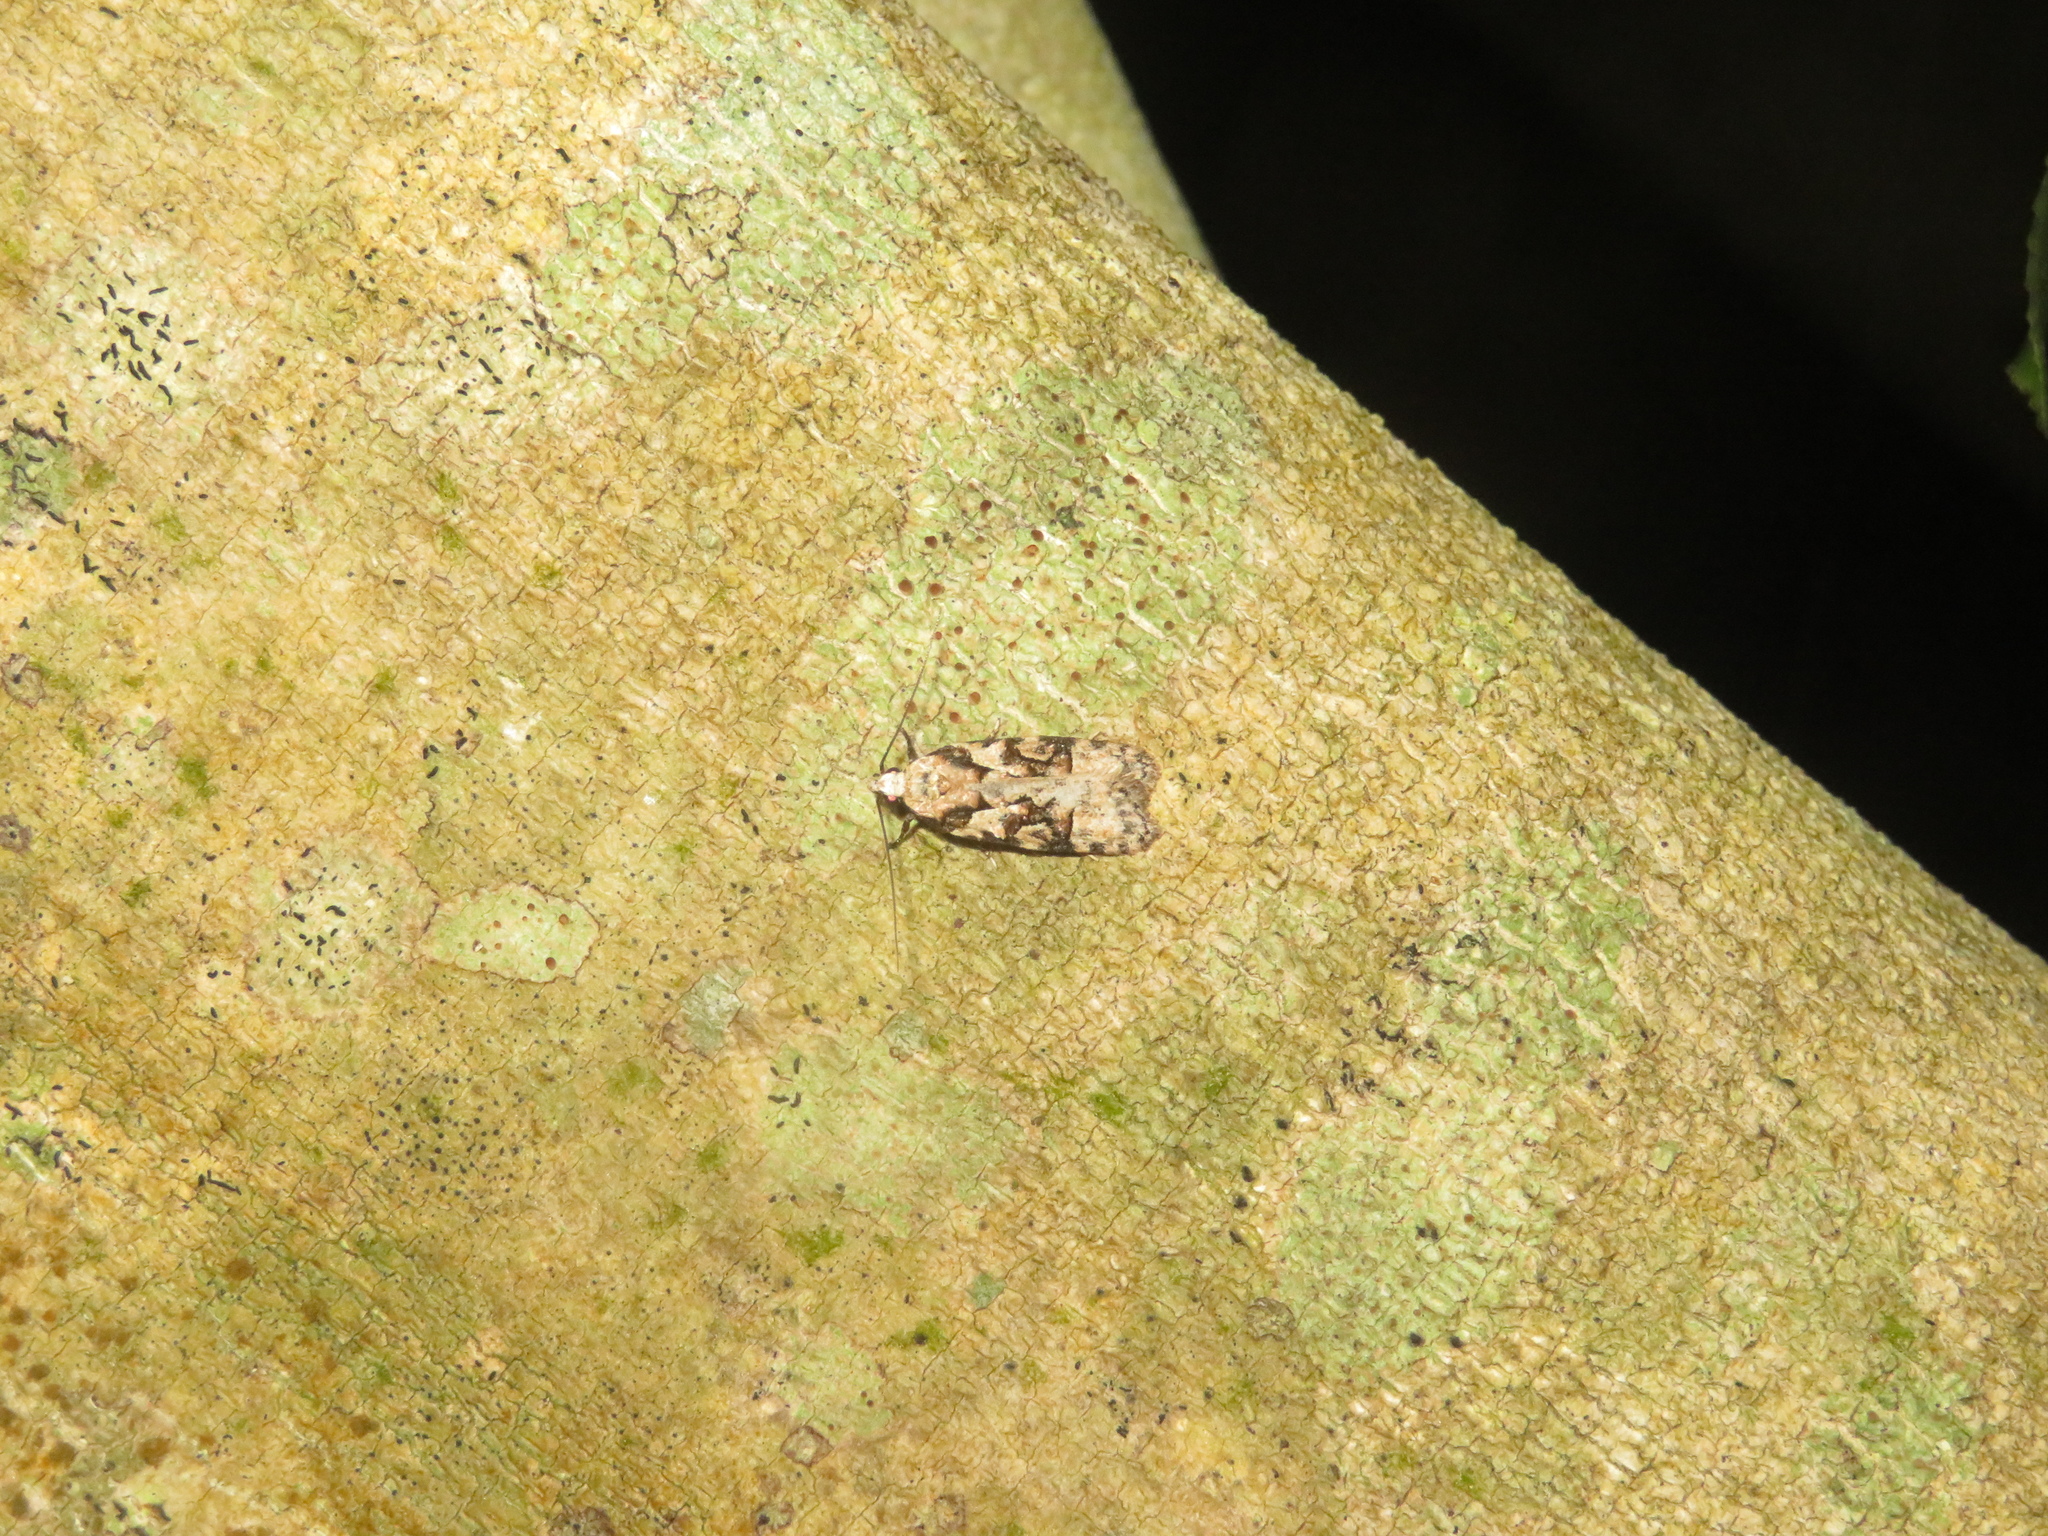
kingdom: Animalia
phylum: Arthropoda
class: Insecta
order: Lepidoptera
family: Oecophoridae
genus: Izatha
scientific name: Izatha epiphanes
